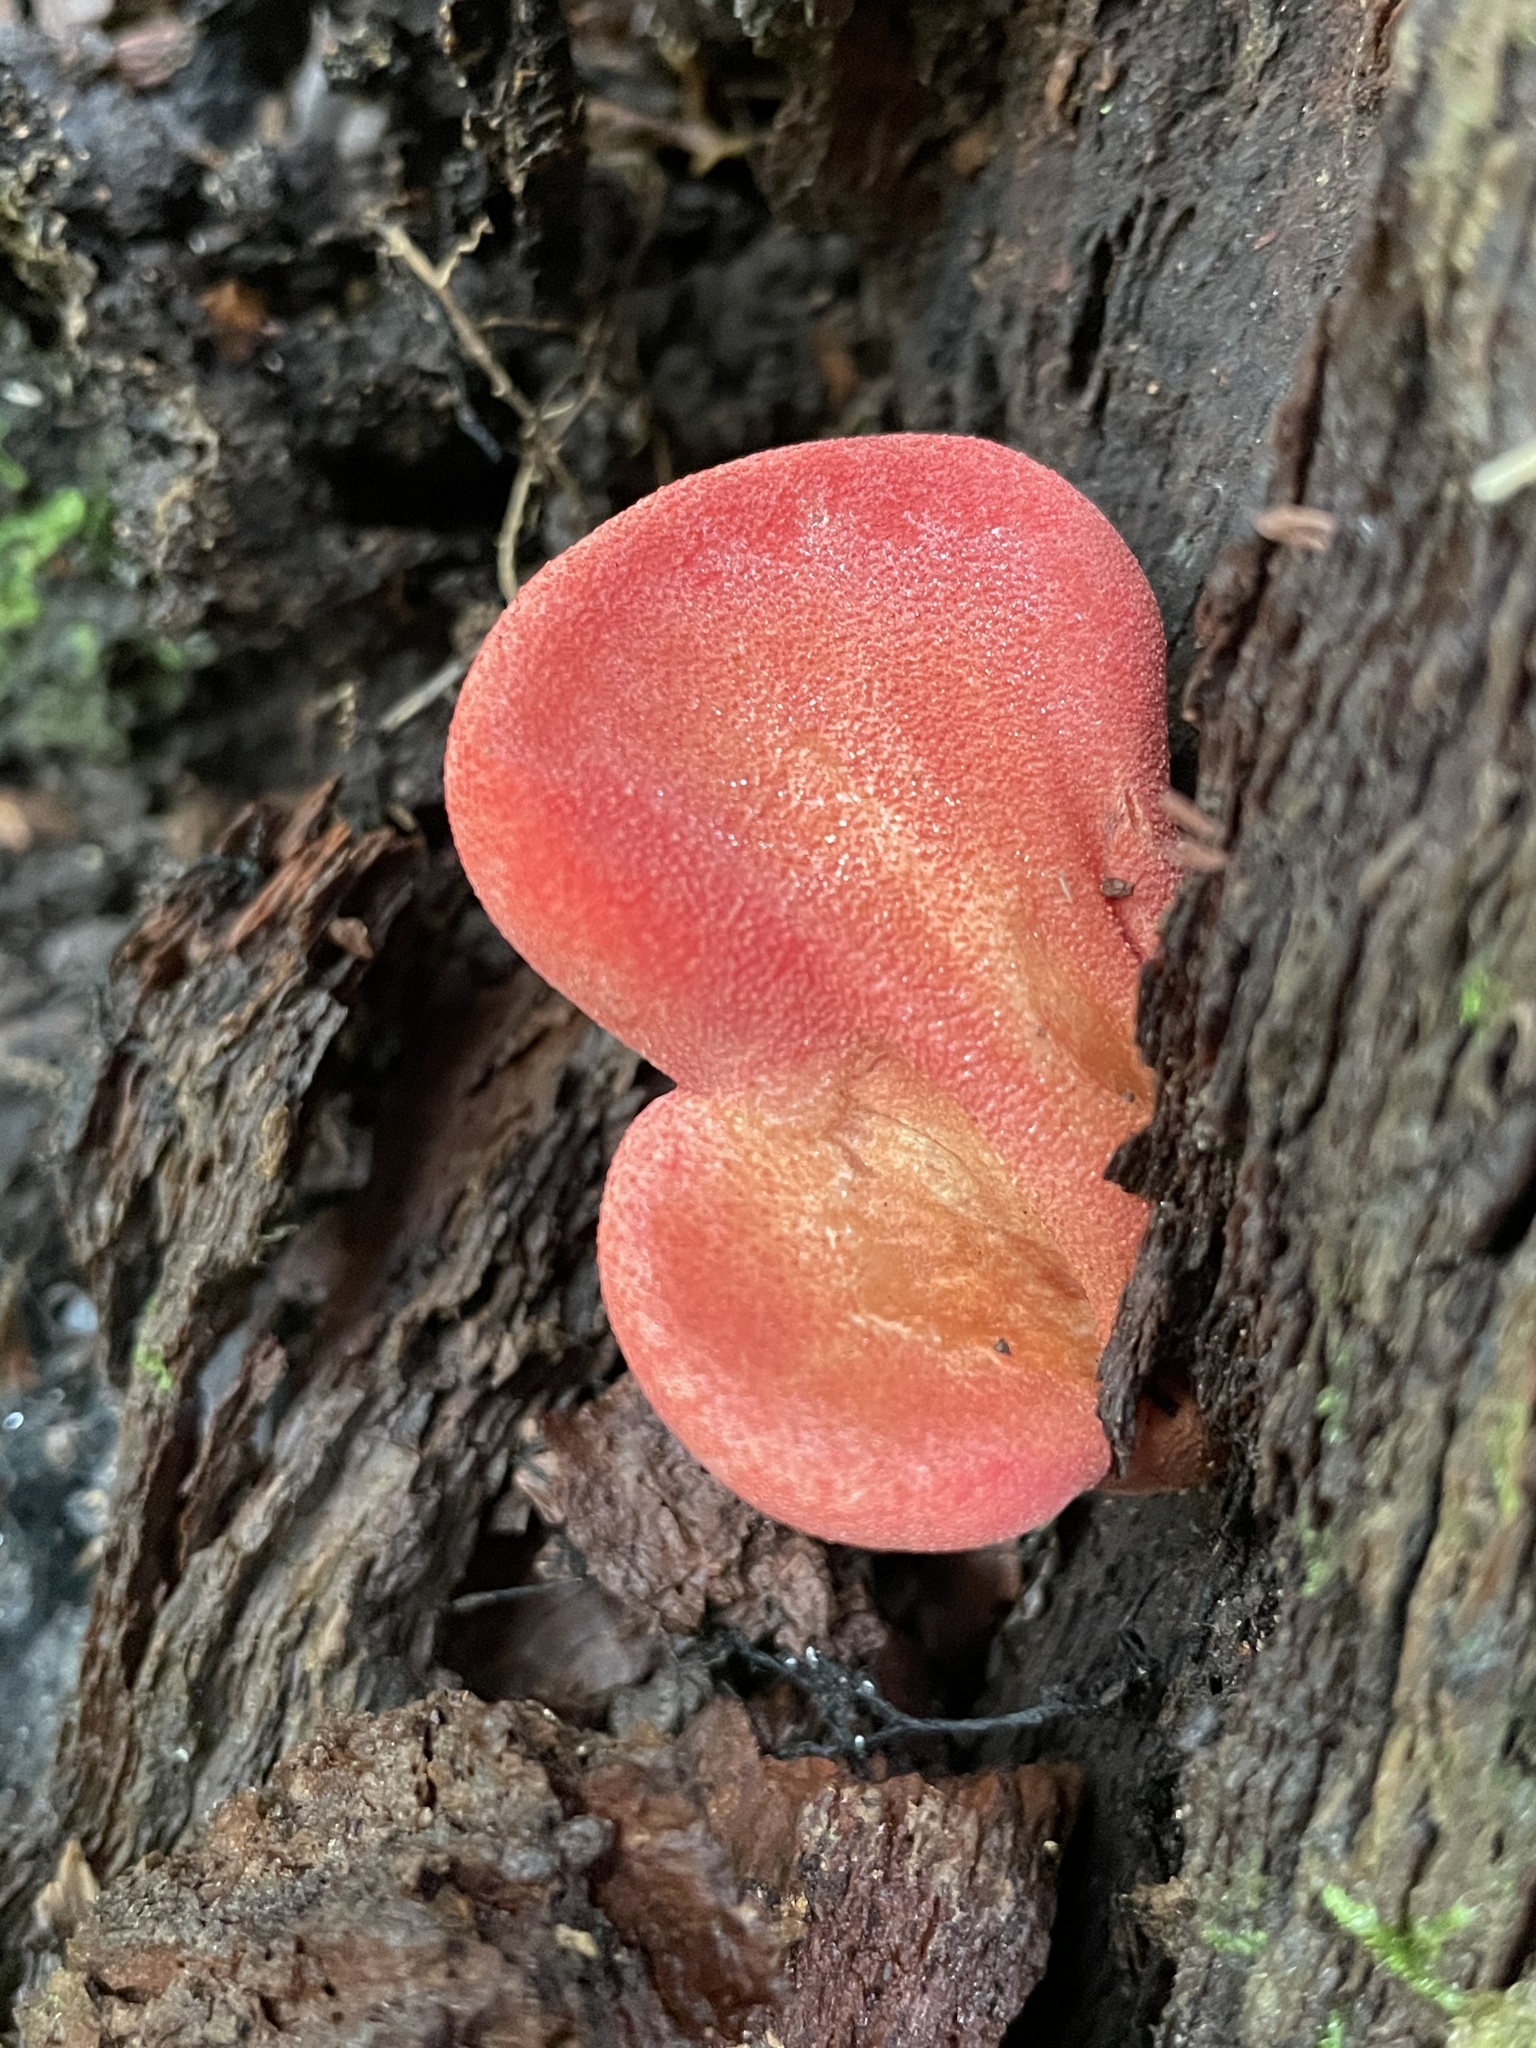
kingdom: Fungi
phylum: Basidiomycota
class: Agaricomycetes
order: Agaricales
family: Fistulinaceae
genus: Fistulina
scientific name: Fistulina hepatica
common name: Beef-steak fungus
